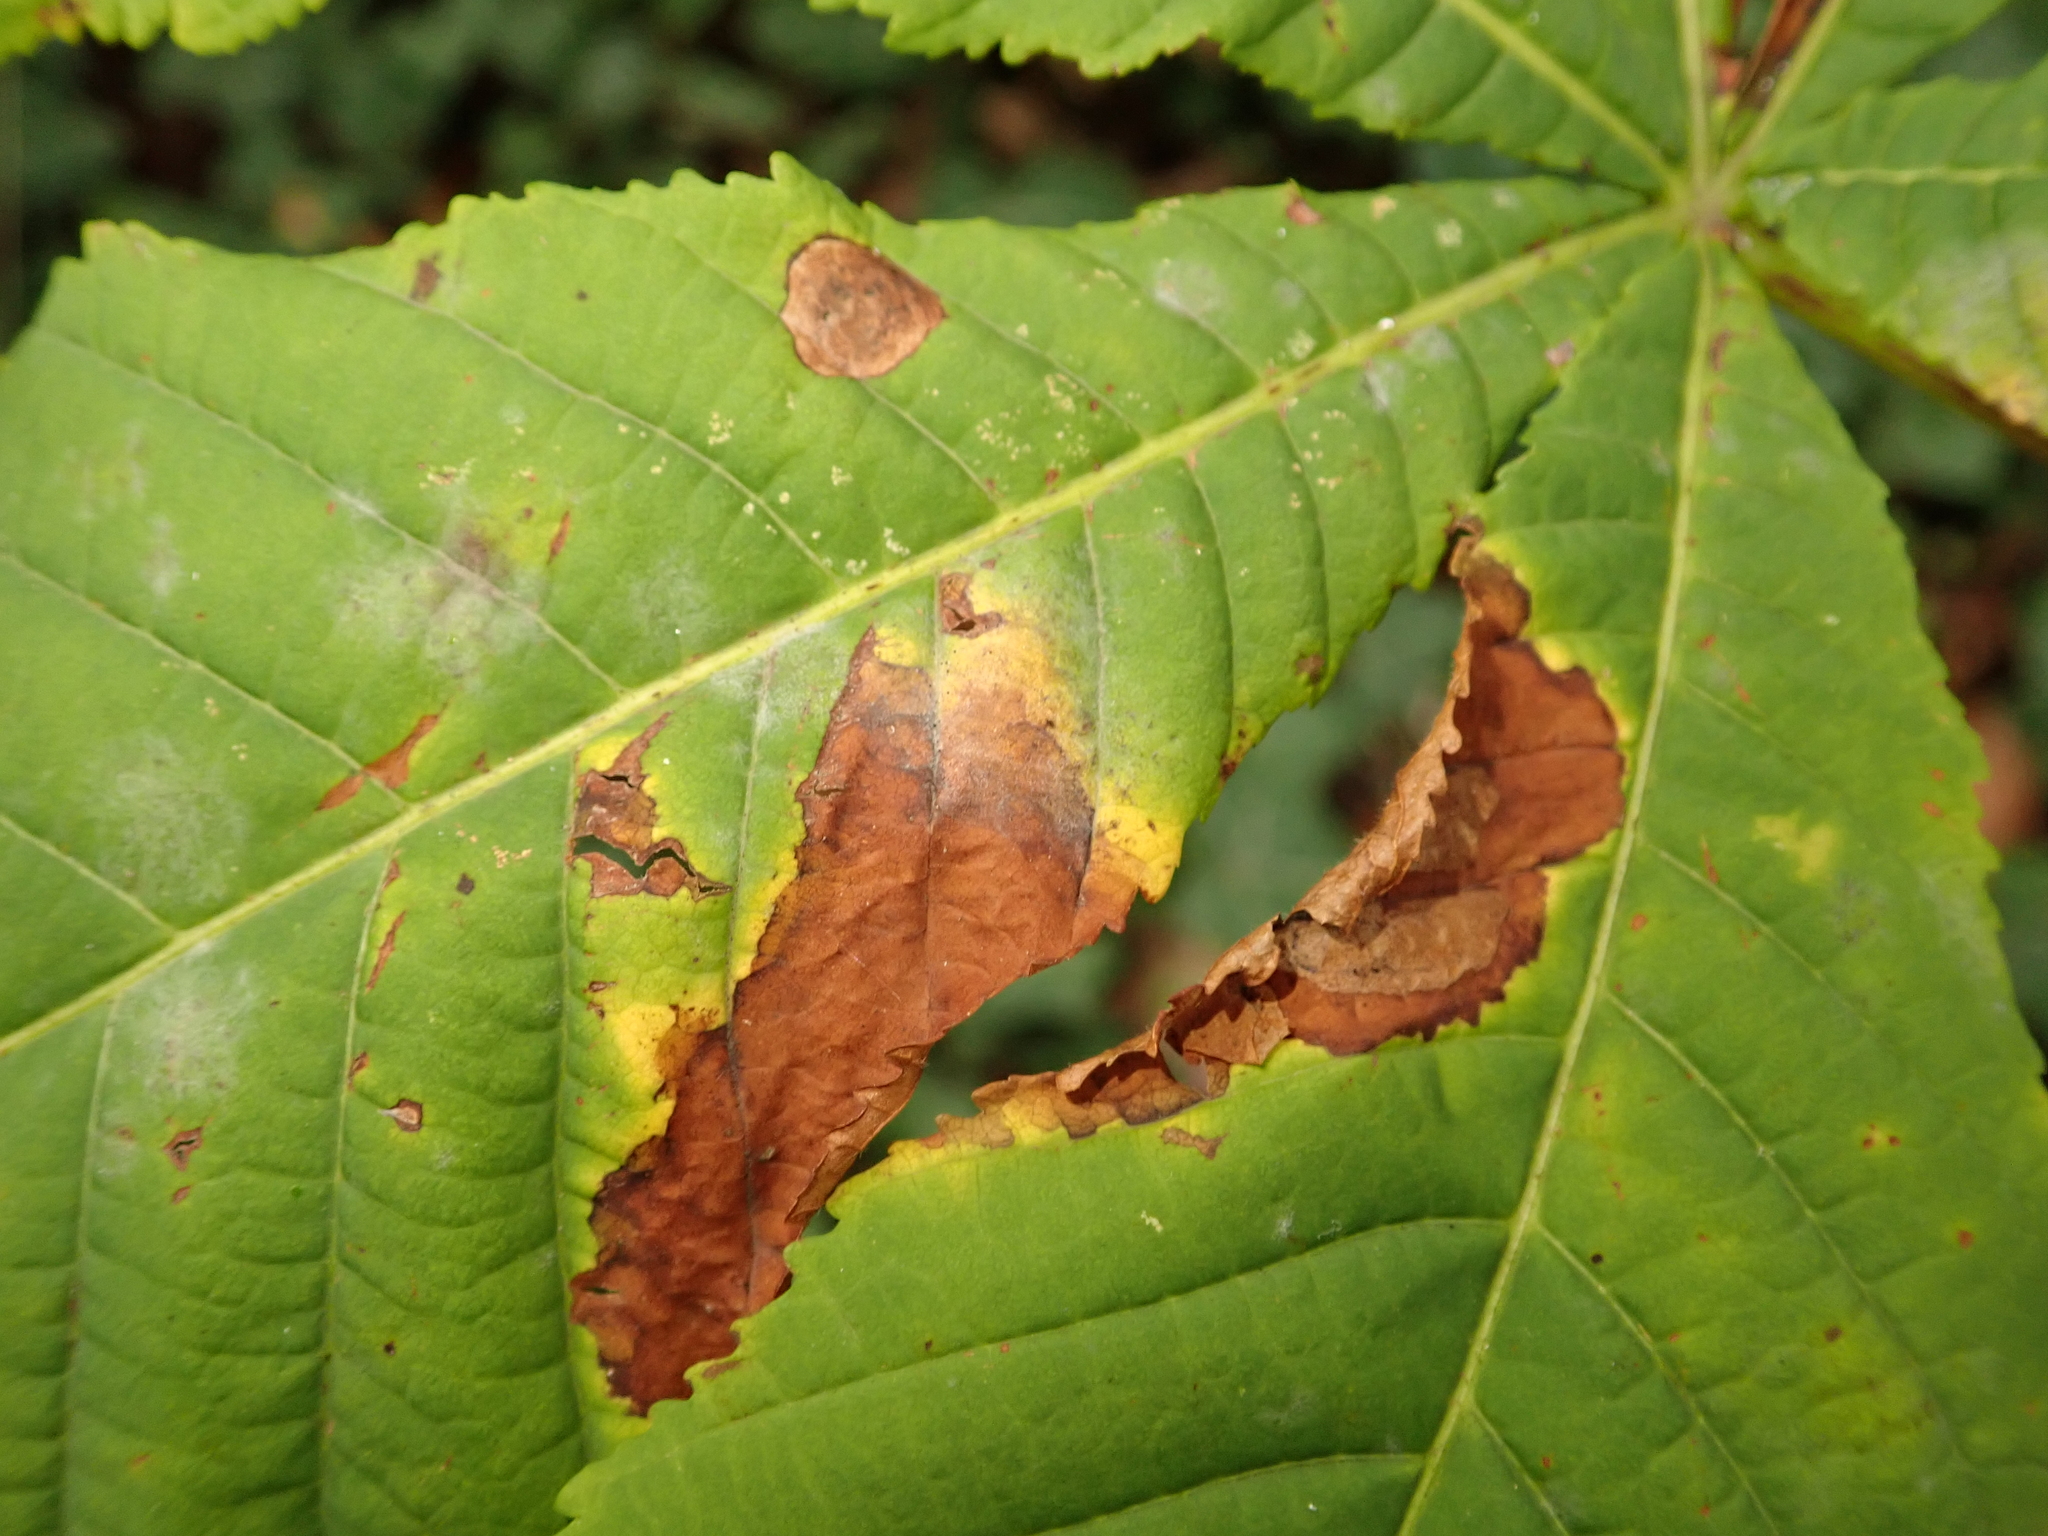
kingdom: Animalia
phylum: Arthropoda
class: Insecta
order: Lepidoptera
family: Gracillariidae
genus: Cameraria
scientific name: Cameraria ohridella
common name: Horse-chestnut leaf-miner
